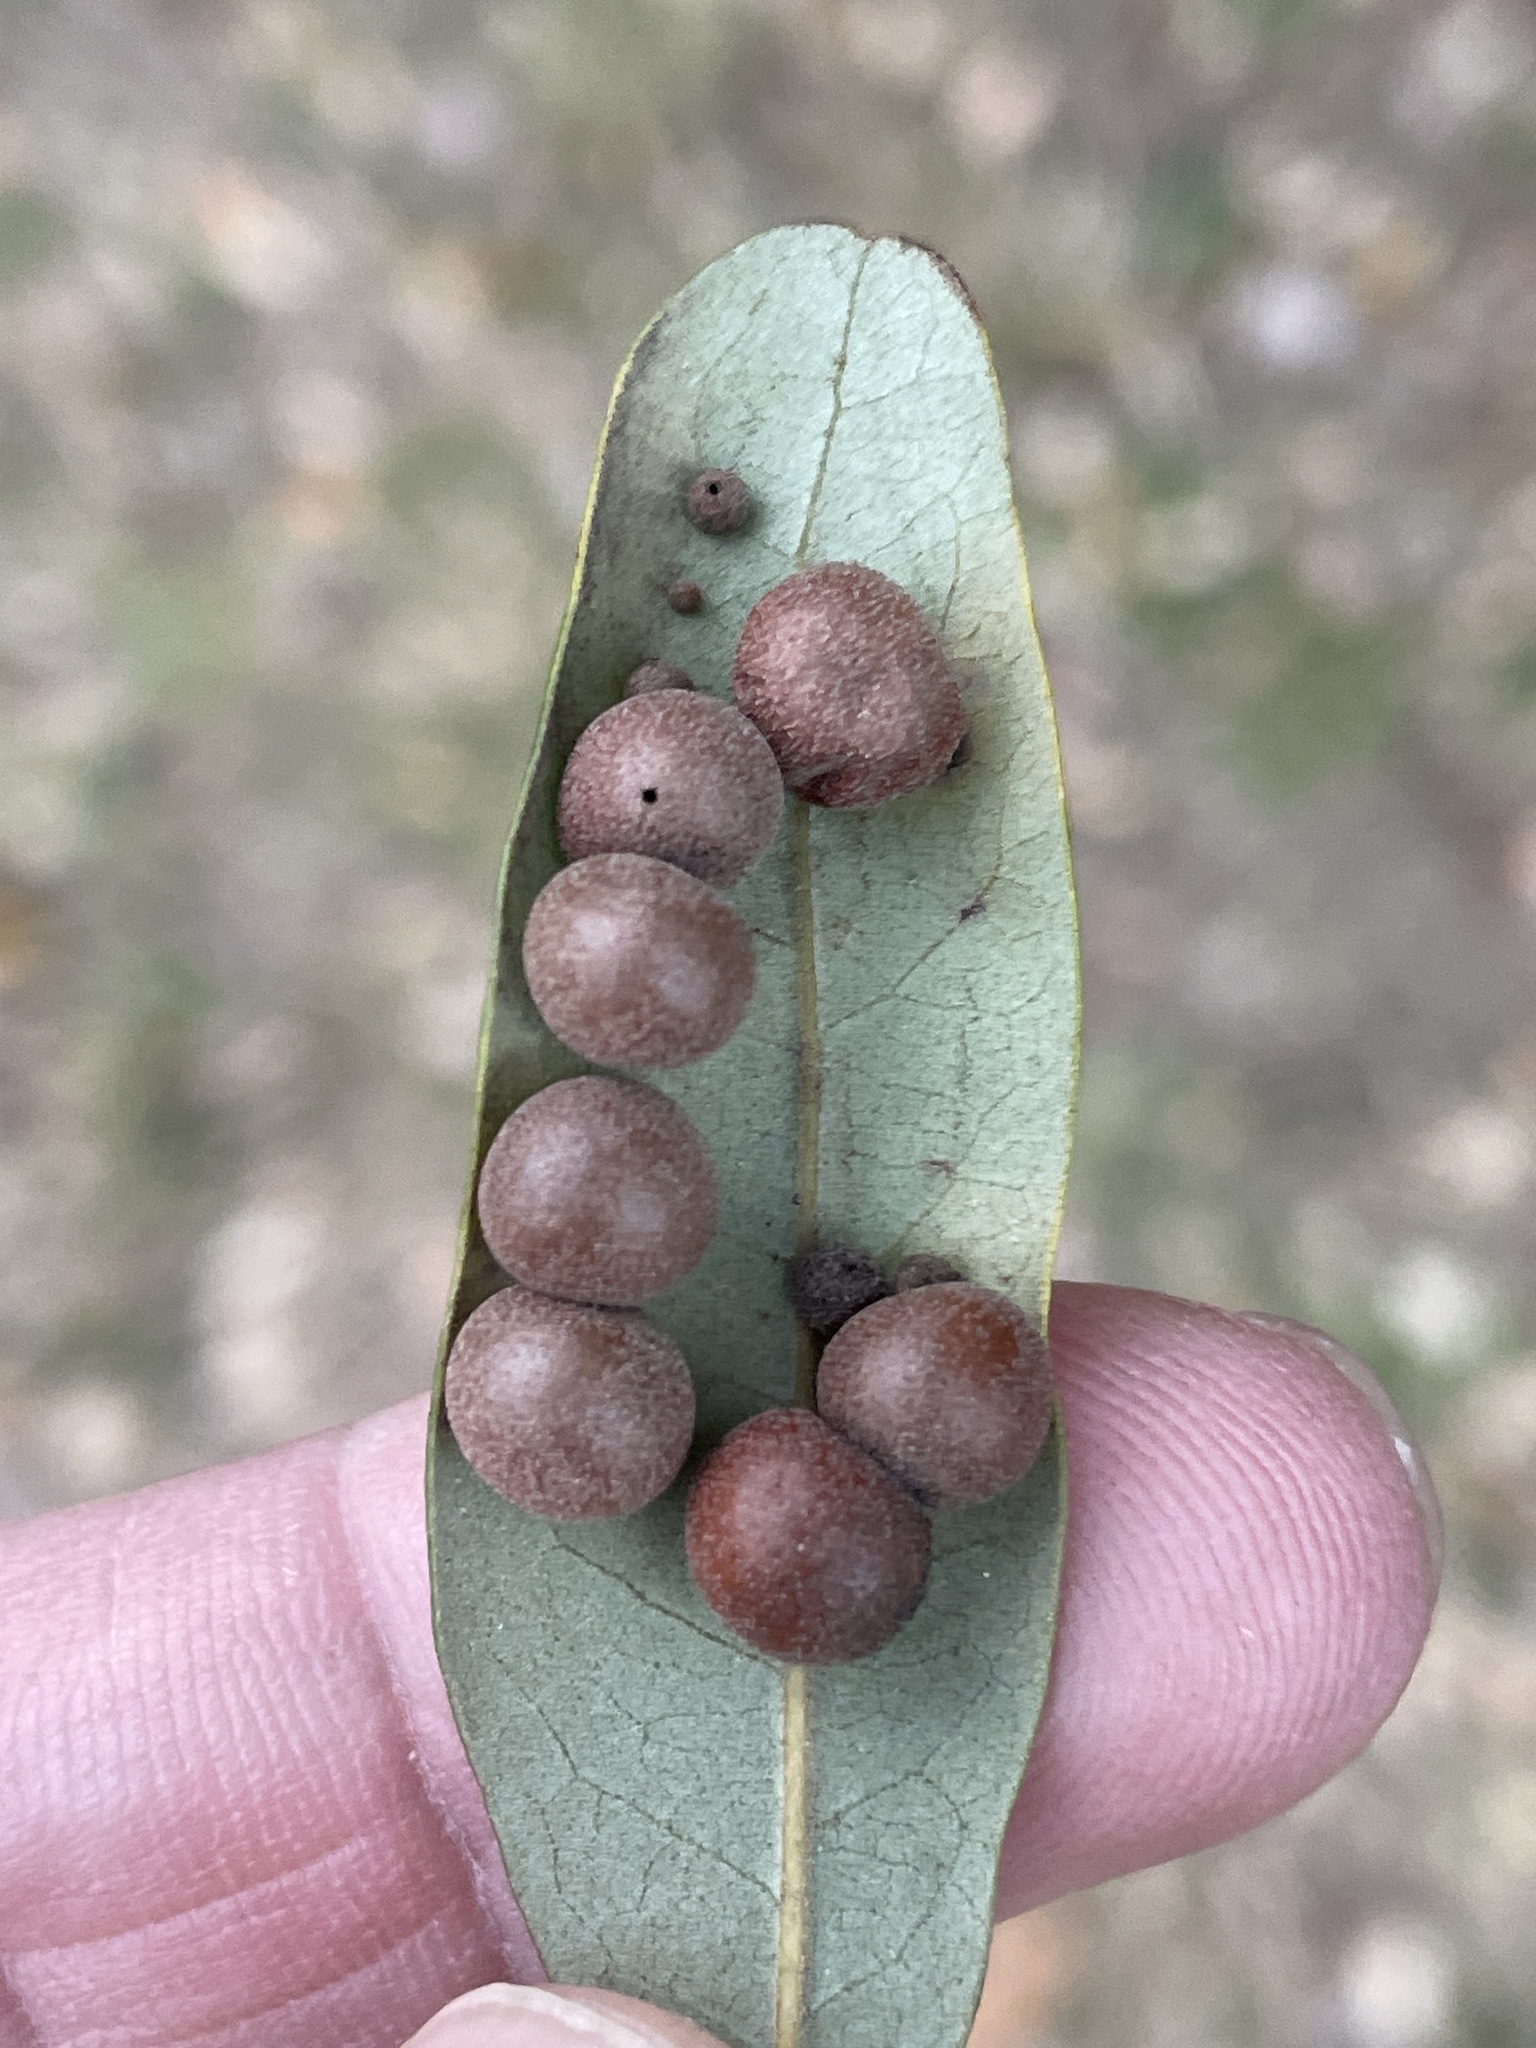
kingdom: Animalia
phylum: Arthropoda
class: Insecta
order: Hymenoptera
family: Cynipidae
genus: Belonocnema
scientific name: Belonocnema kinseyi
